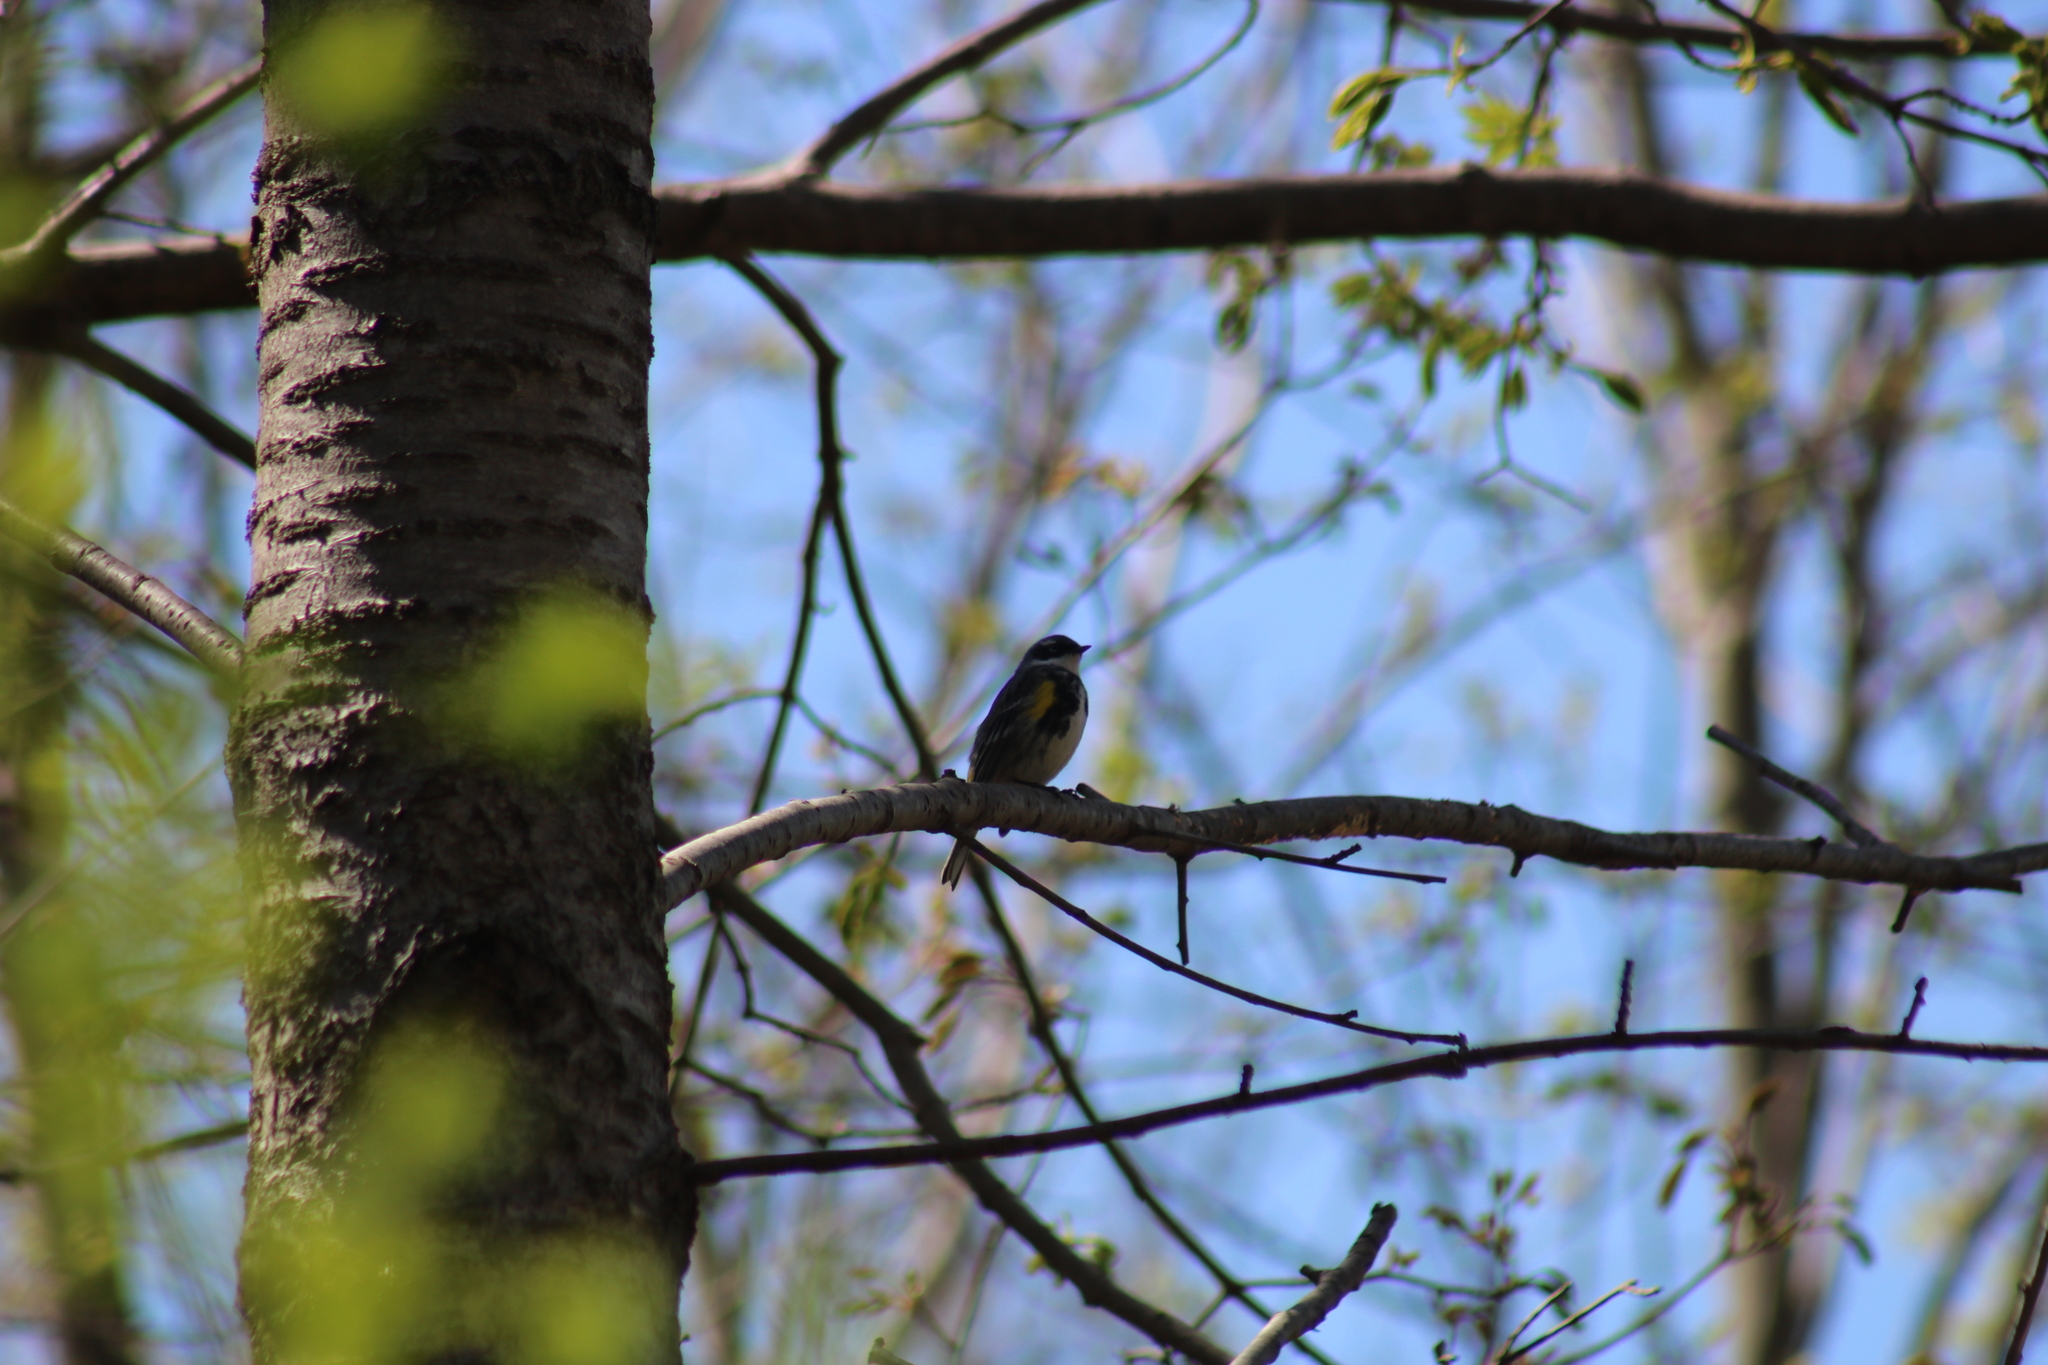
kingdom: Animalia
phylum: Chordata
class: Aves
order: Passeriformes
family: Parulidae
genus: Setophaga
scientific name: Setophaga coronata
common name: Myrtle warbler
